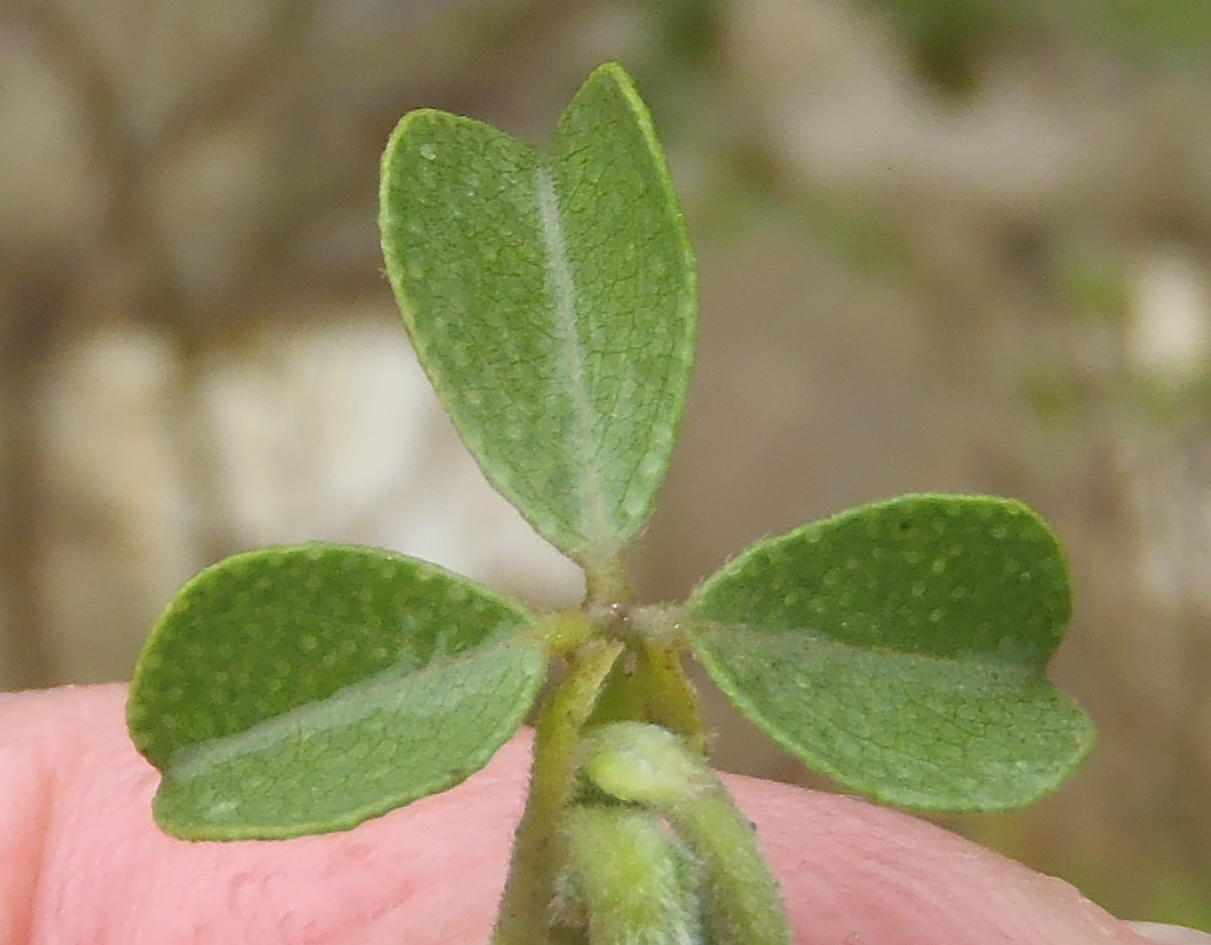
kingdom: Plantae
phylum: Tracheophyta
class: Magnoliopsida
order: Fabales
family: Fabaceae
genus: Psoralea
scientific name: Psoralea stachyera
